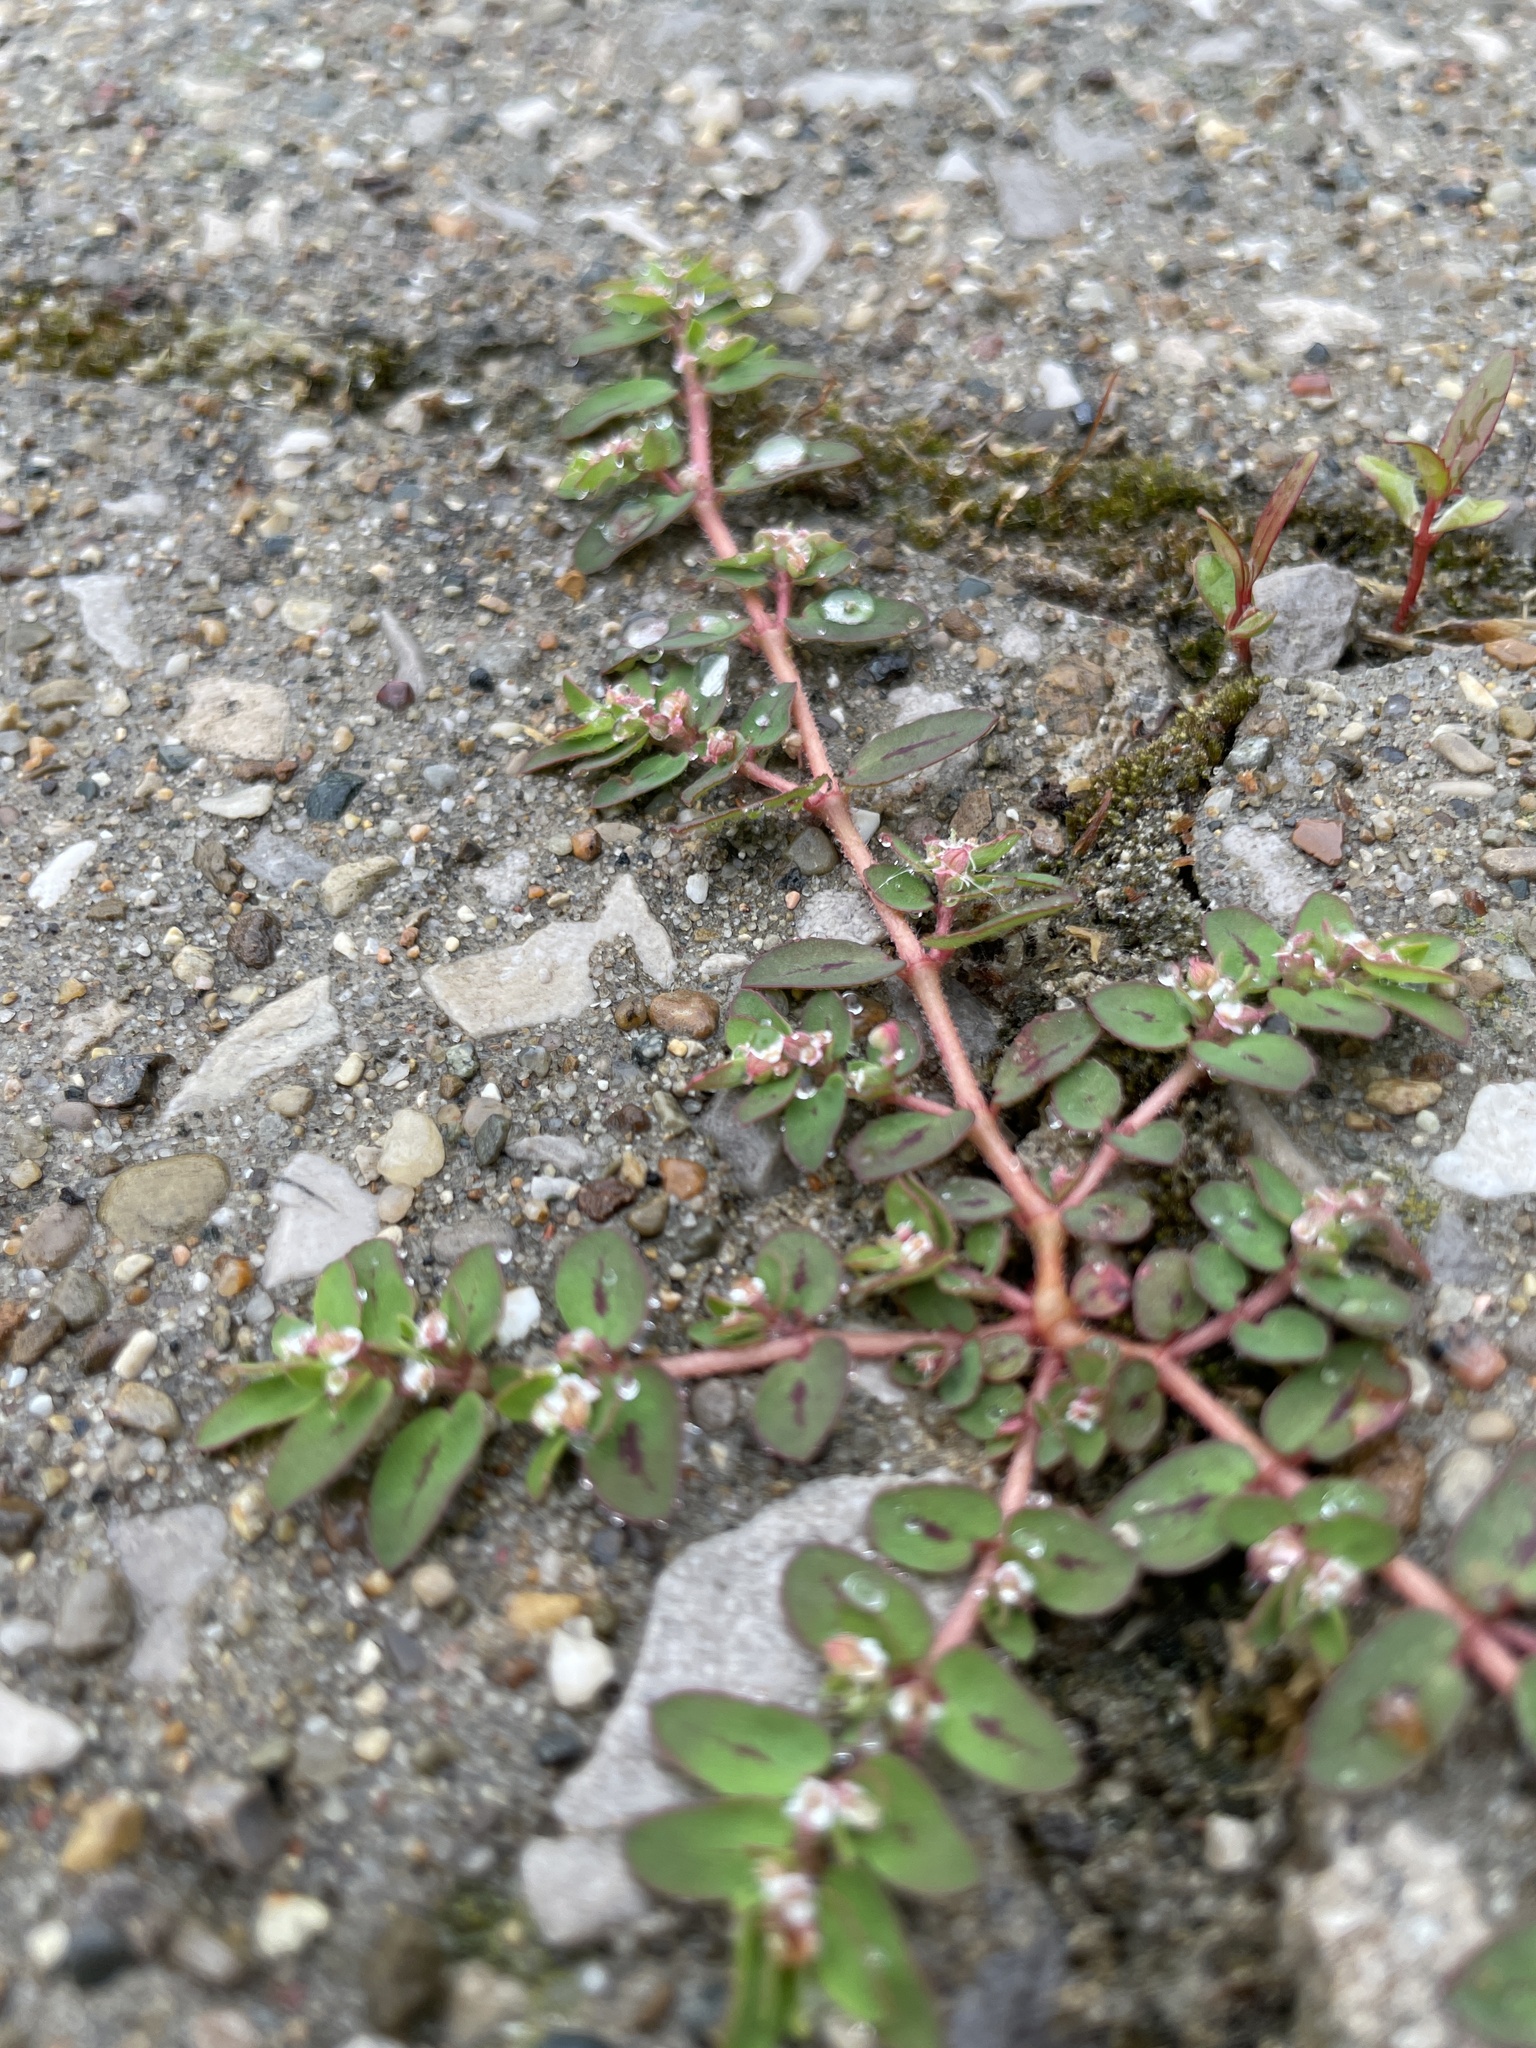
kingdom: Plantae
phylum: Tracheophyta
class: Magnoliopsida
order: Malpighiales
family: Euphorbiaceae
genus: Euphorbia
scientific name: Euphorbia maculata
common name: Spotted spurge
